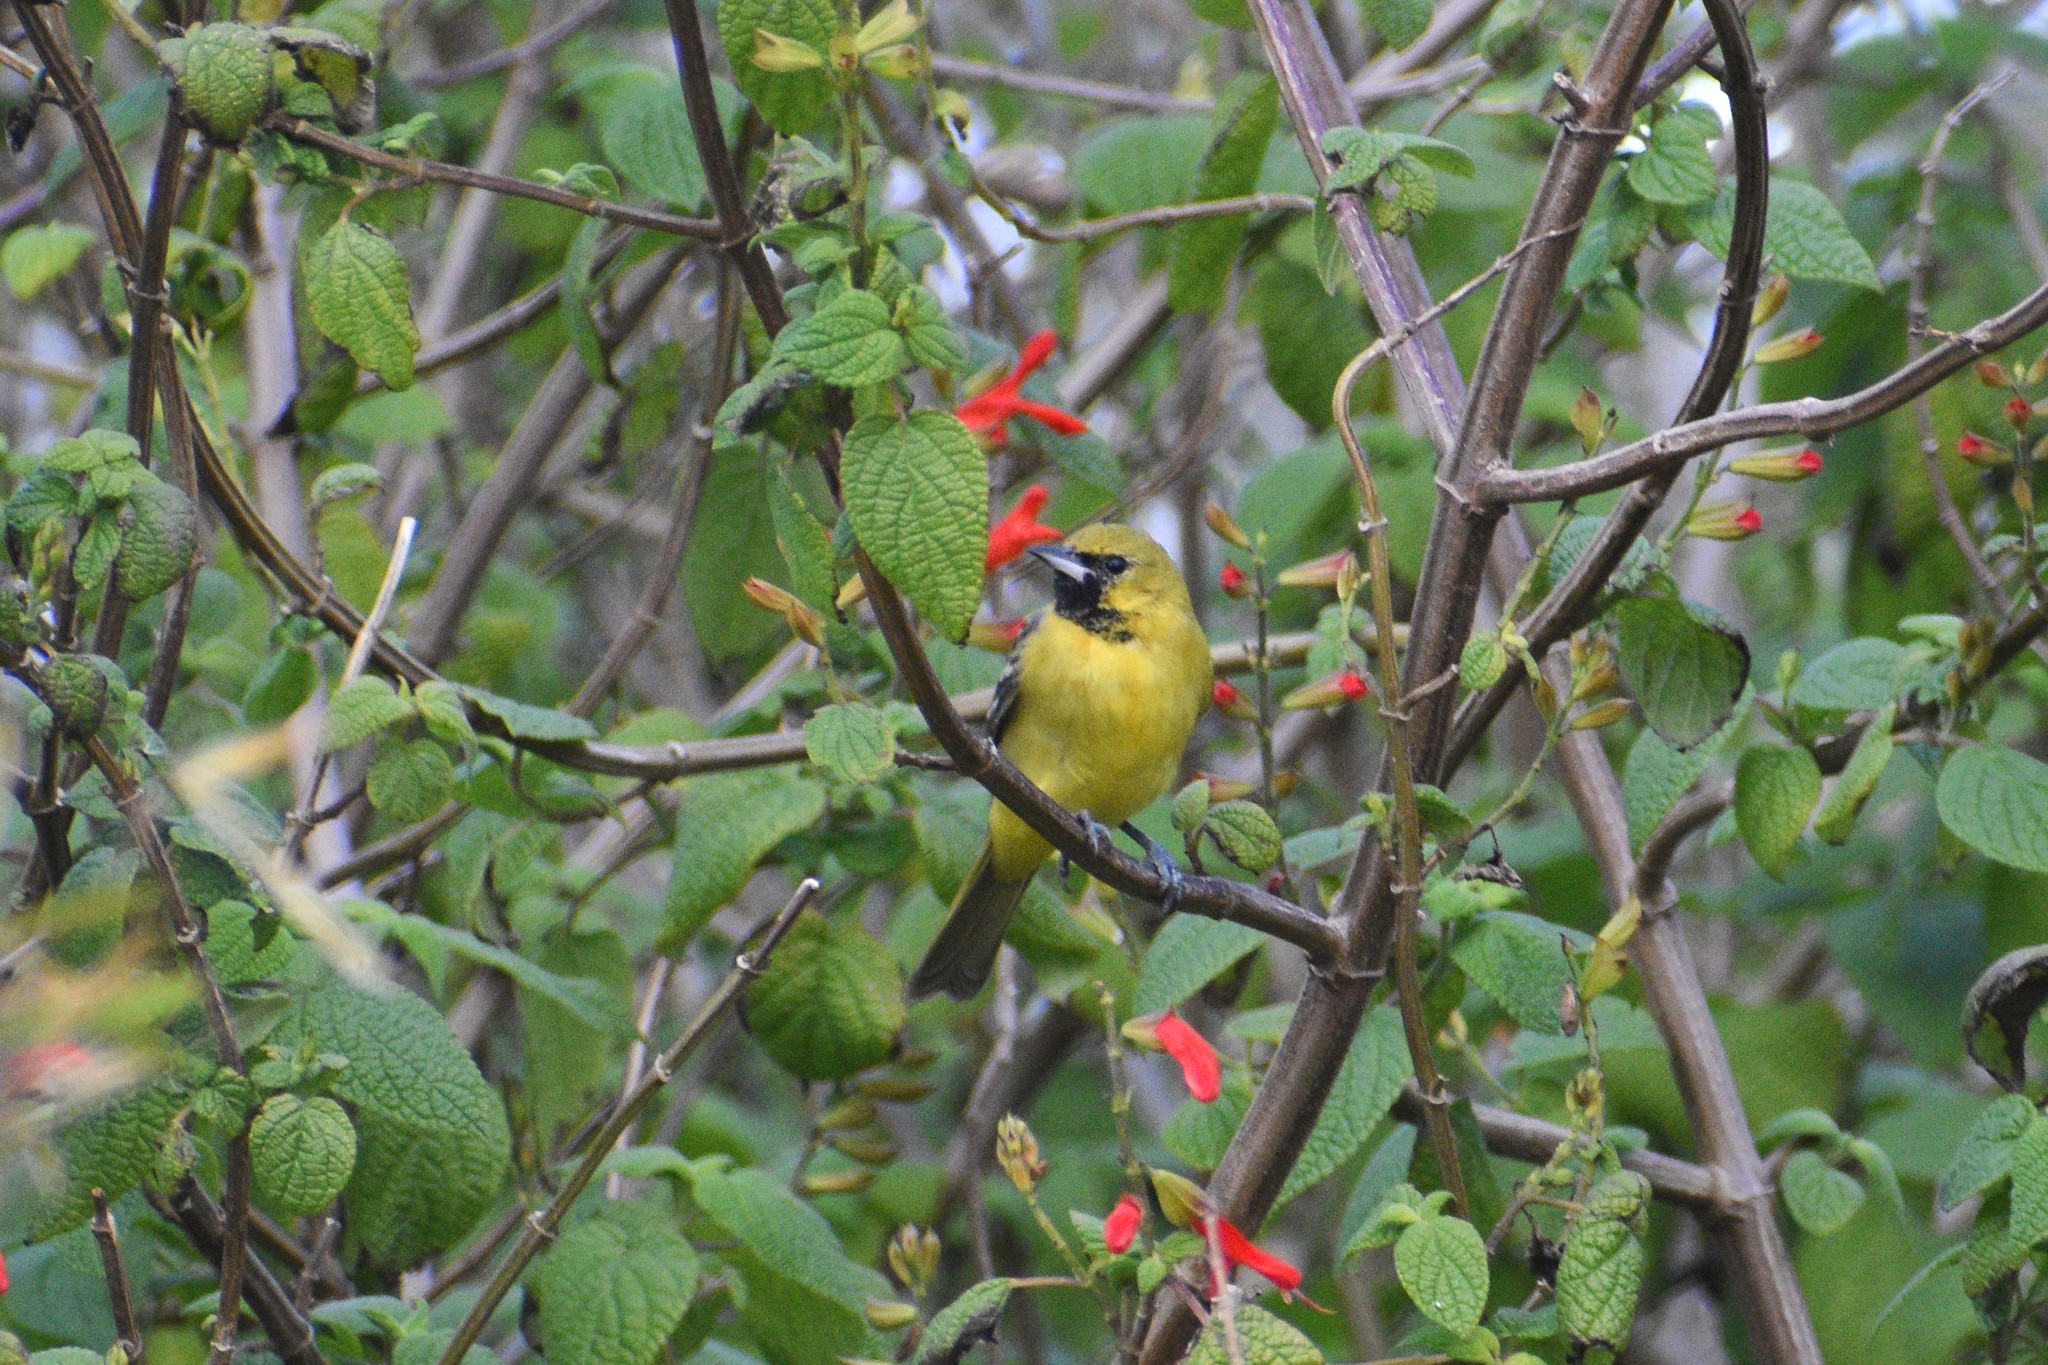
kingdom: Animalia
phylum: Chordata
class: Aves
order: Passeriformes
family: Icteridae
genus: Icterus
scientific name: Icterus spurius
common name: Orchard oriole
